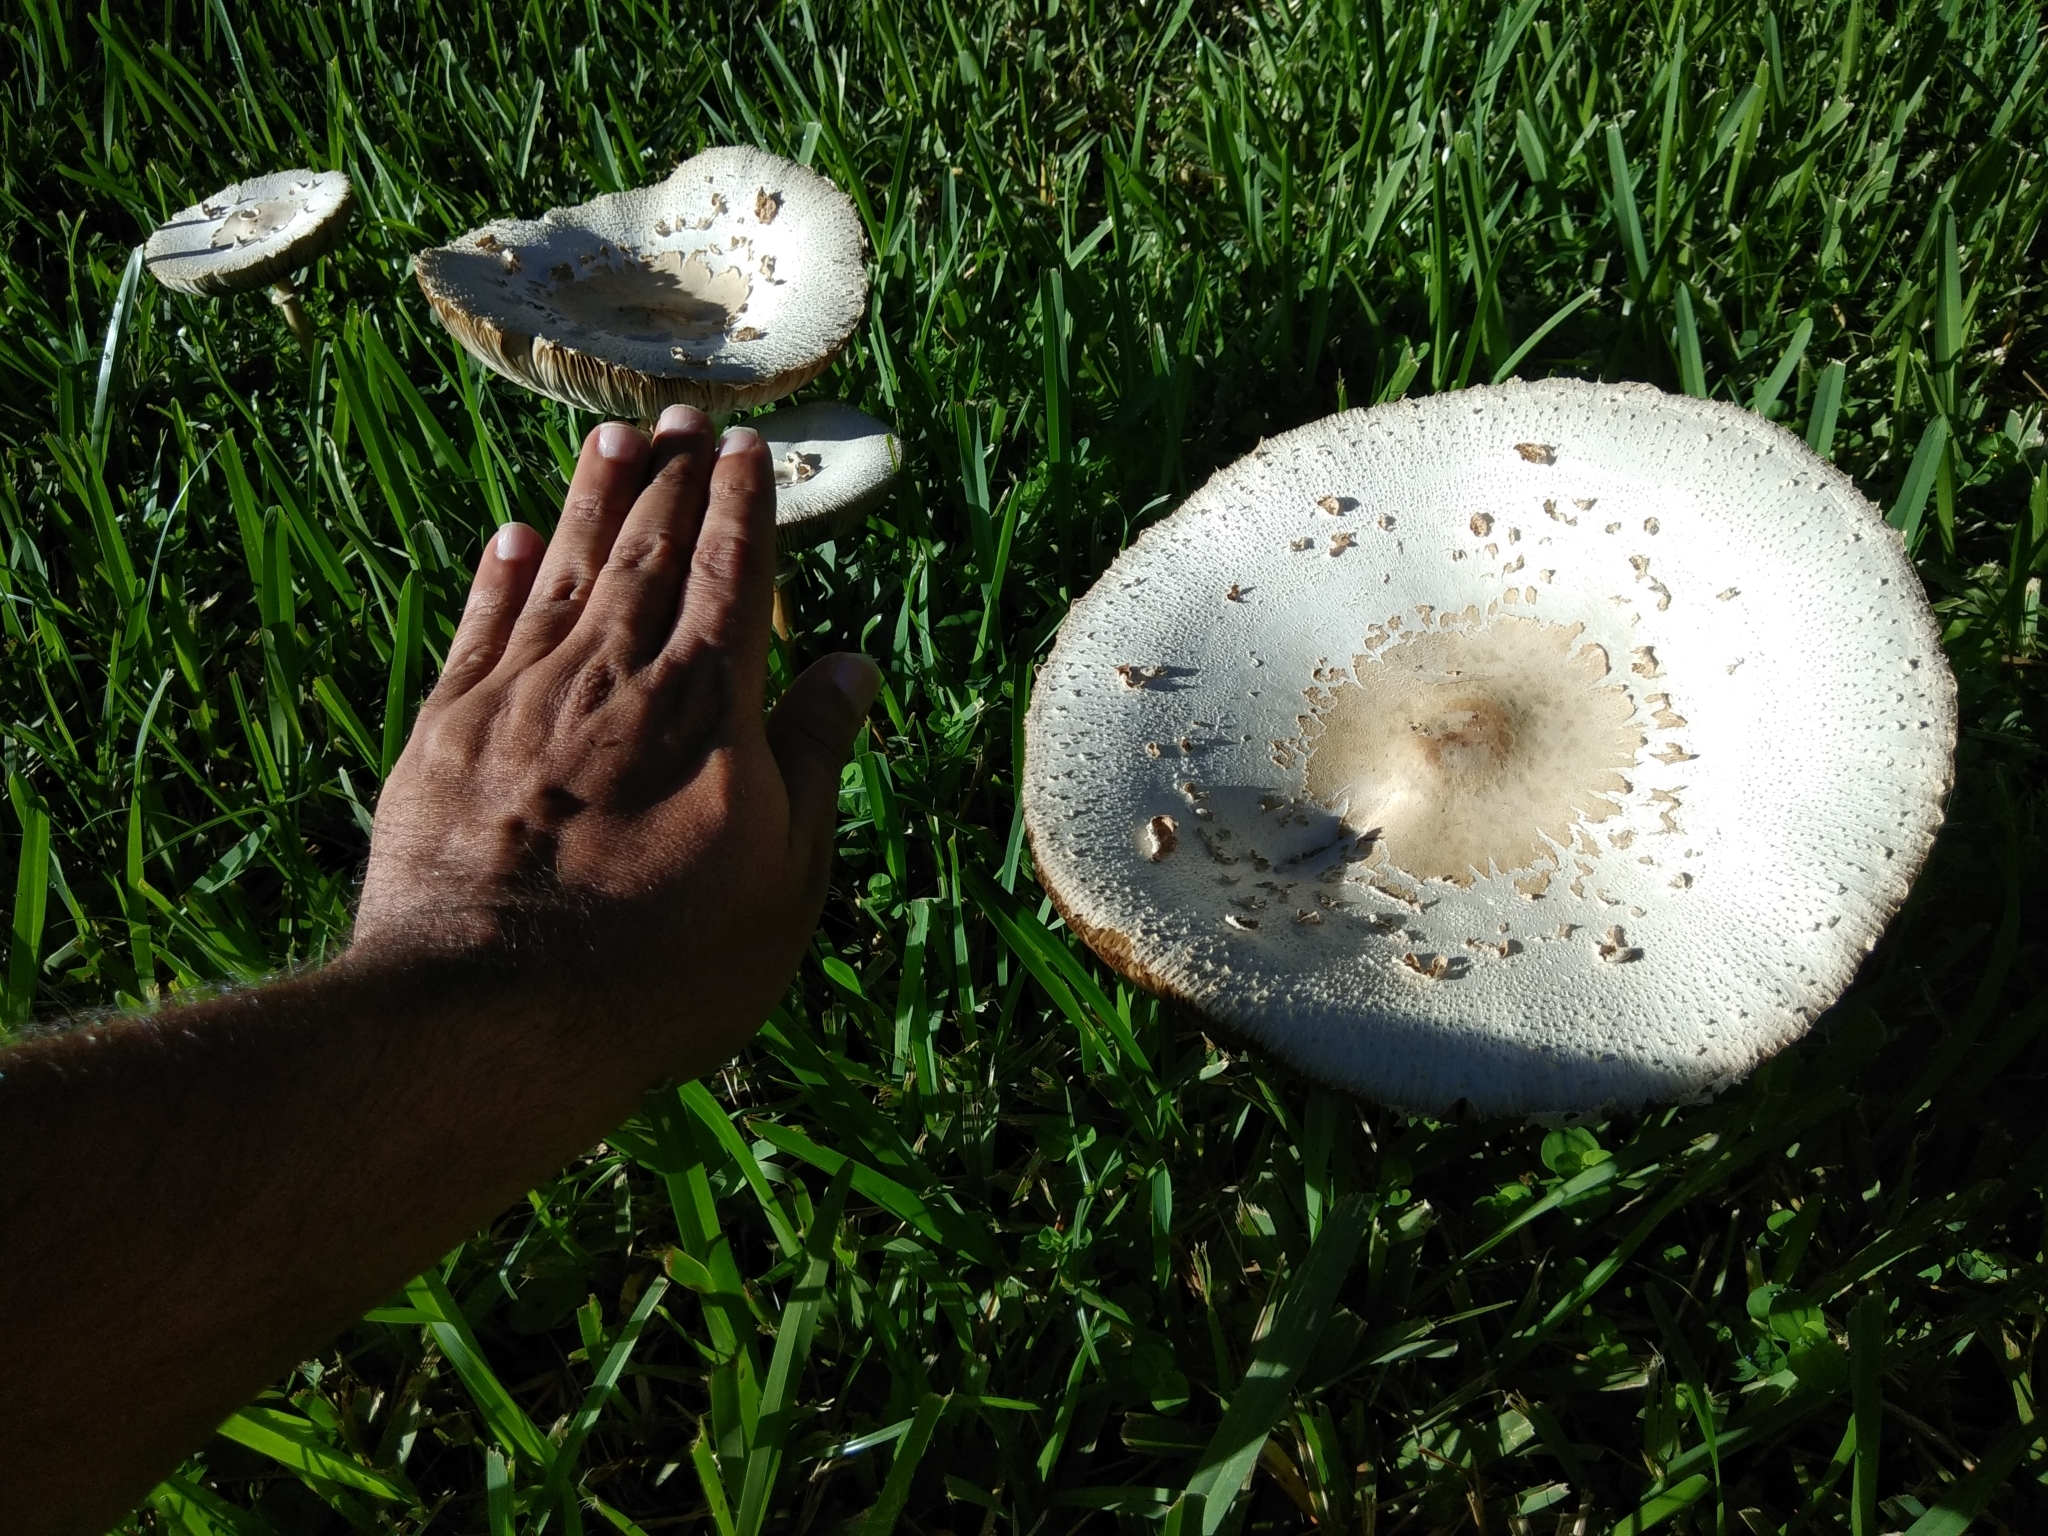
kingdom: Fungi
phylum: Basidiomycota
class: Agaricomycetes
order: Agaricales
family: Agaricaceae
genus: Chlorophyllum
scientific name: Chlorophyllum molybdites
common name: False parasol
